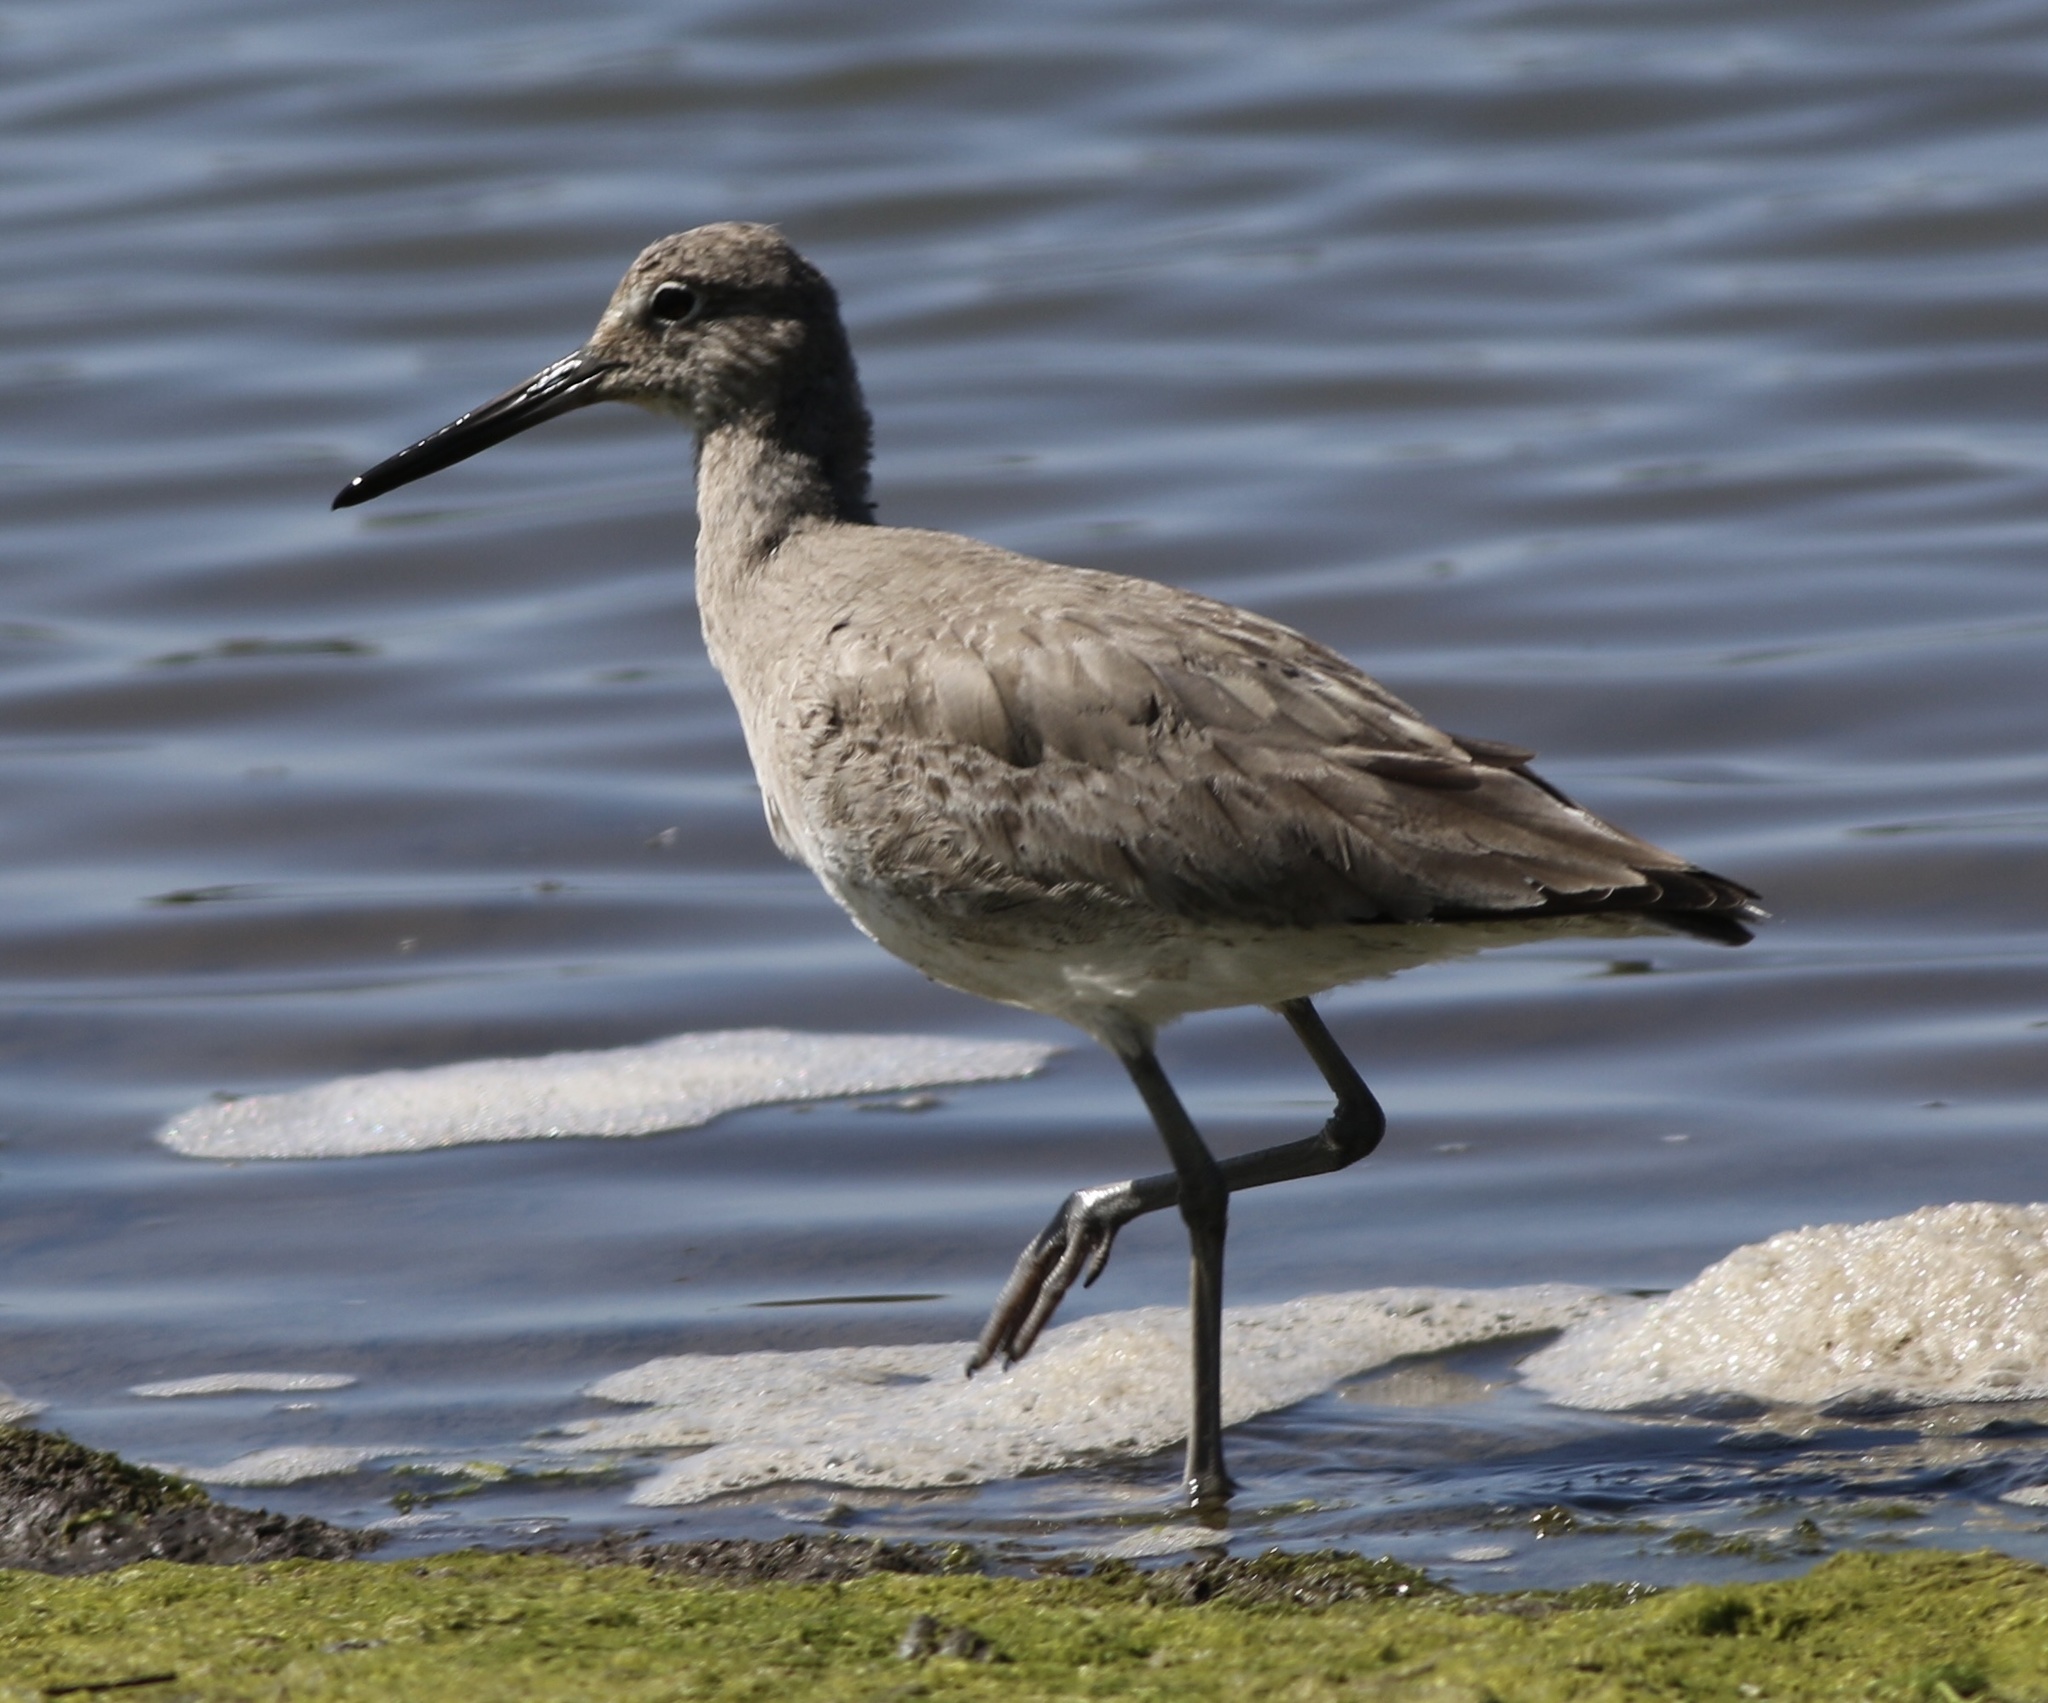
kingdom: Animalia
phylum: Chordata
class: Aves
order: Charadriiformes
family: Scolopacidae
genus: Tringa
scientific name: Tringa semipalmata
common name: Willet
